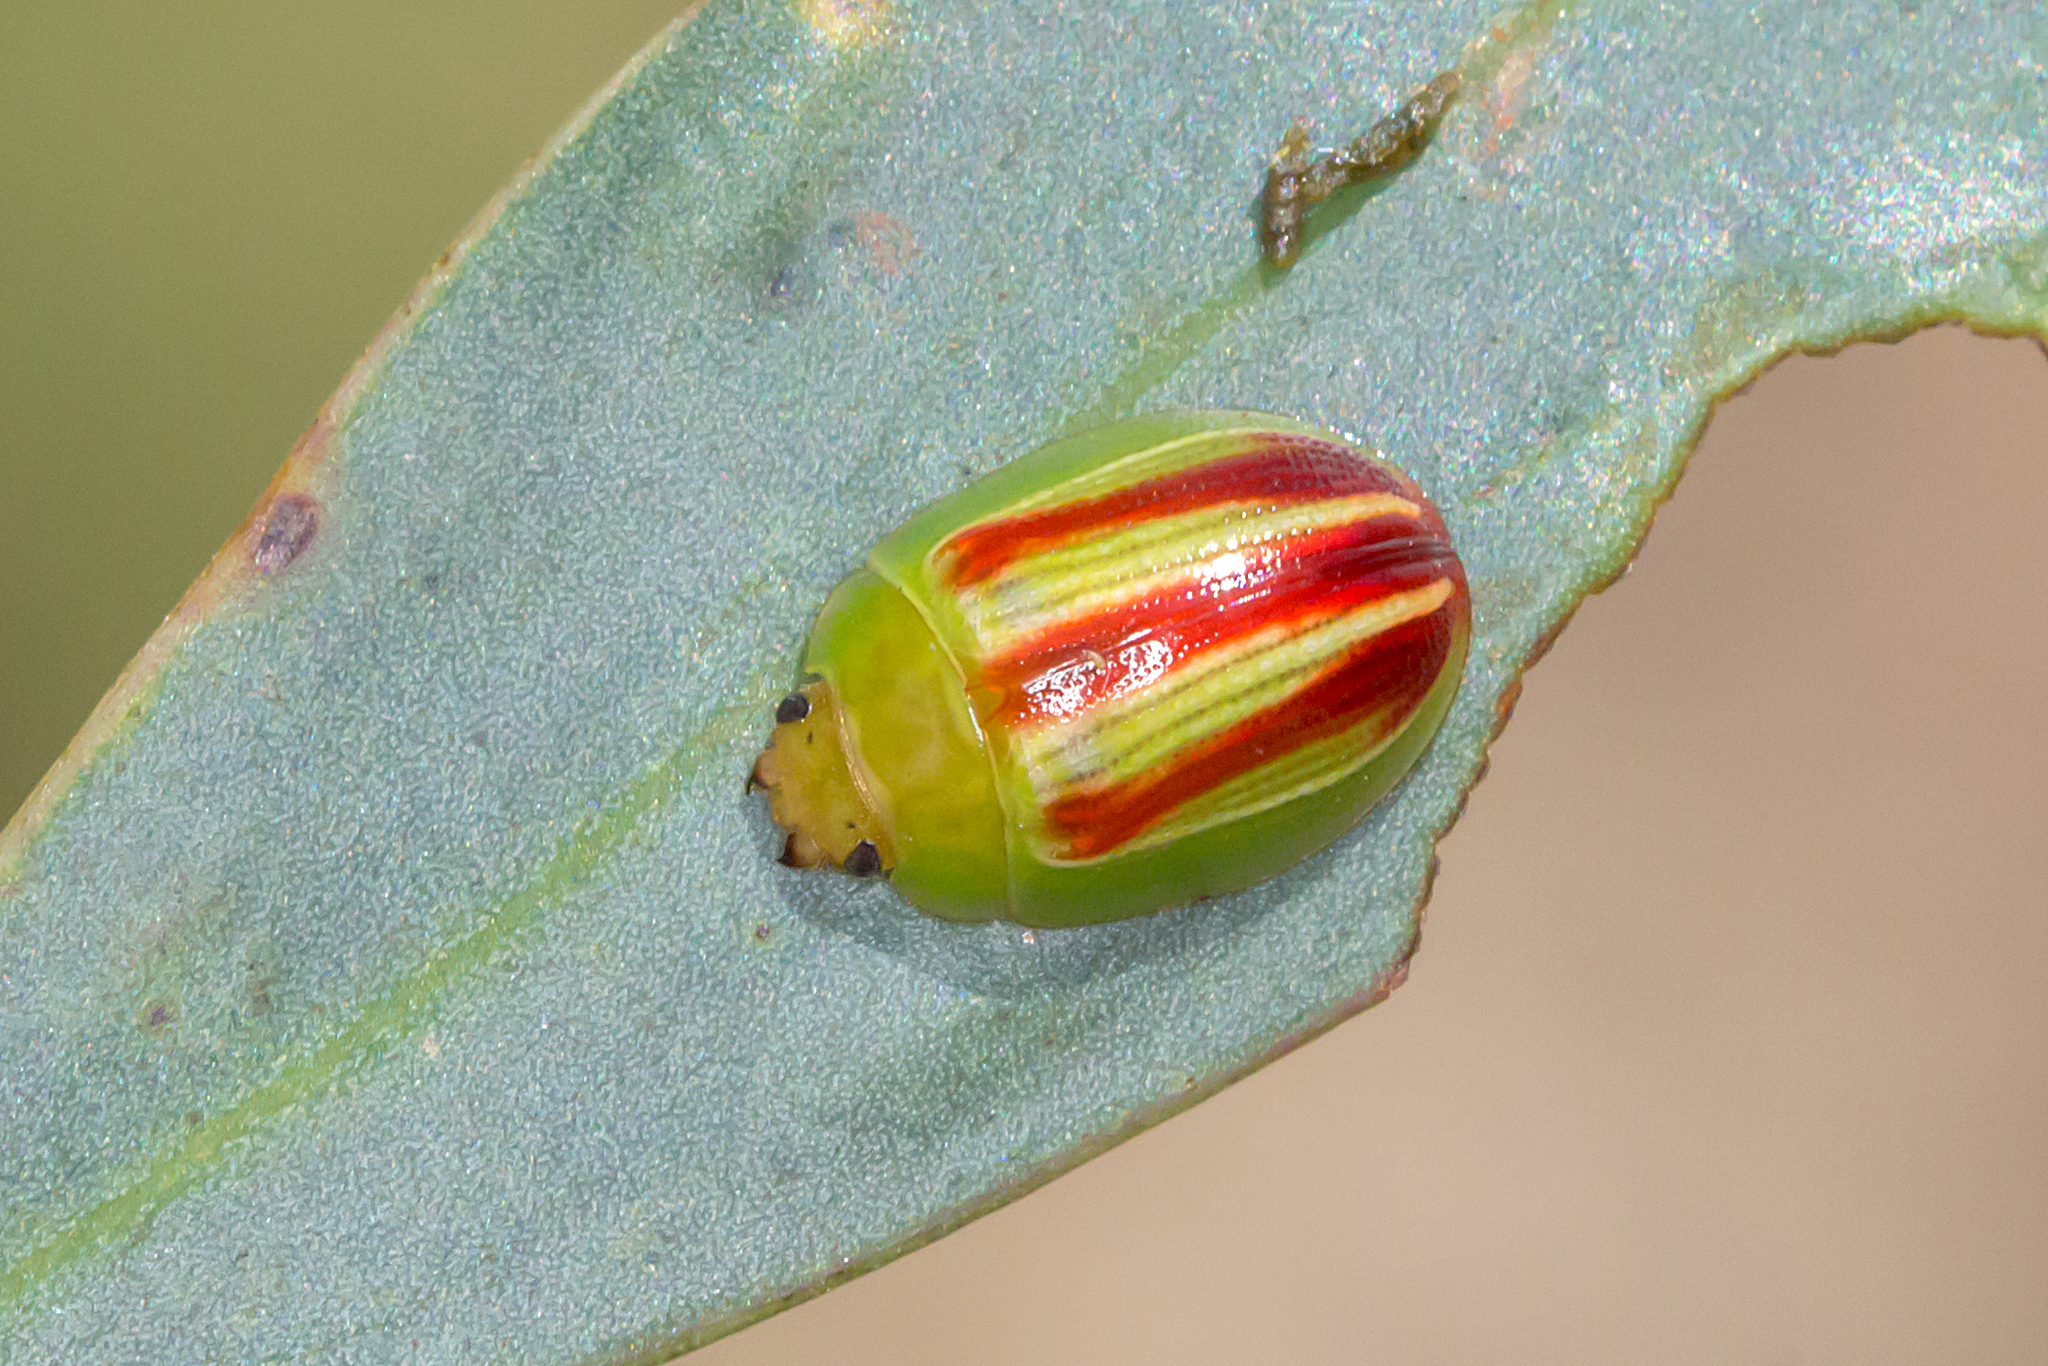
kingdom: Animalia
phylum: Arthropoda
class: Insecta
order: Coleoptera
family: Chrysomelidae
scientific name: Chrysomelidae
